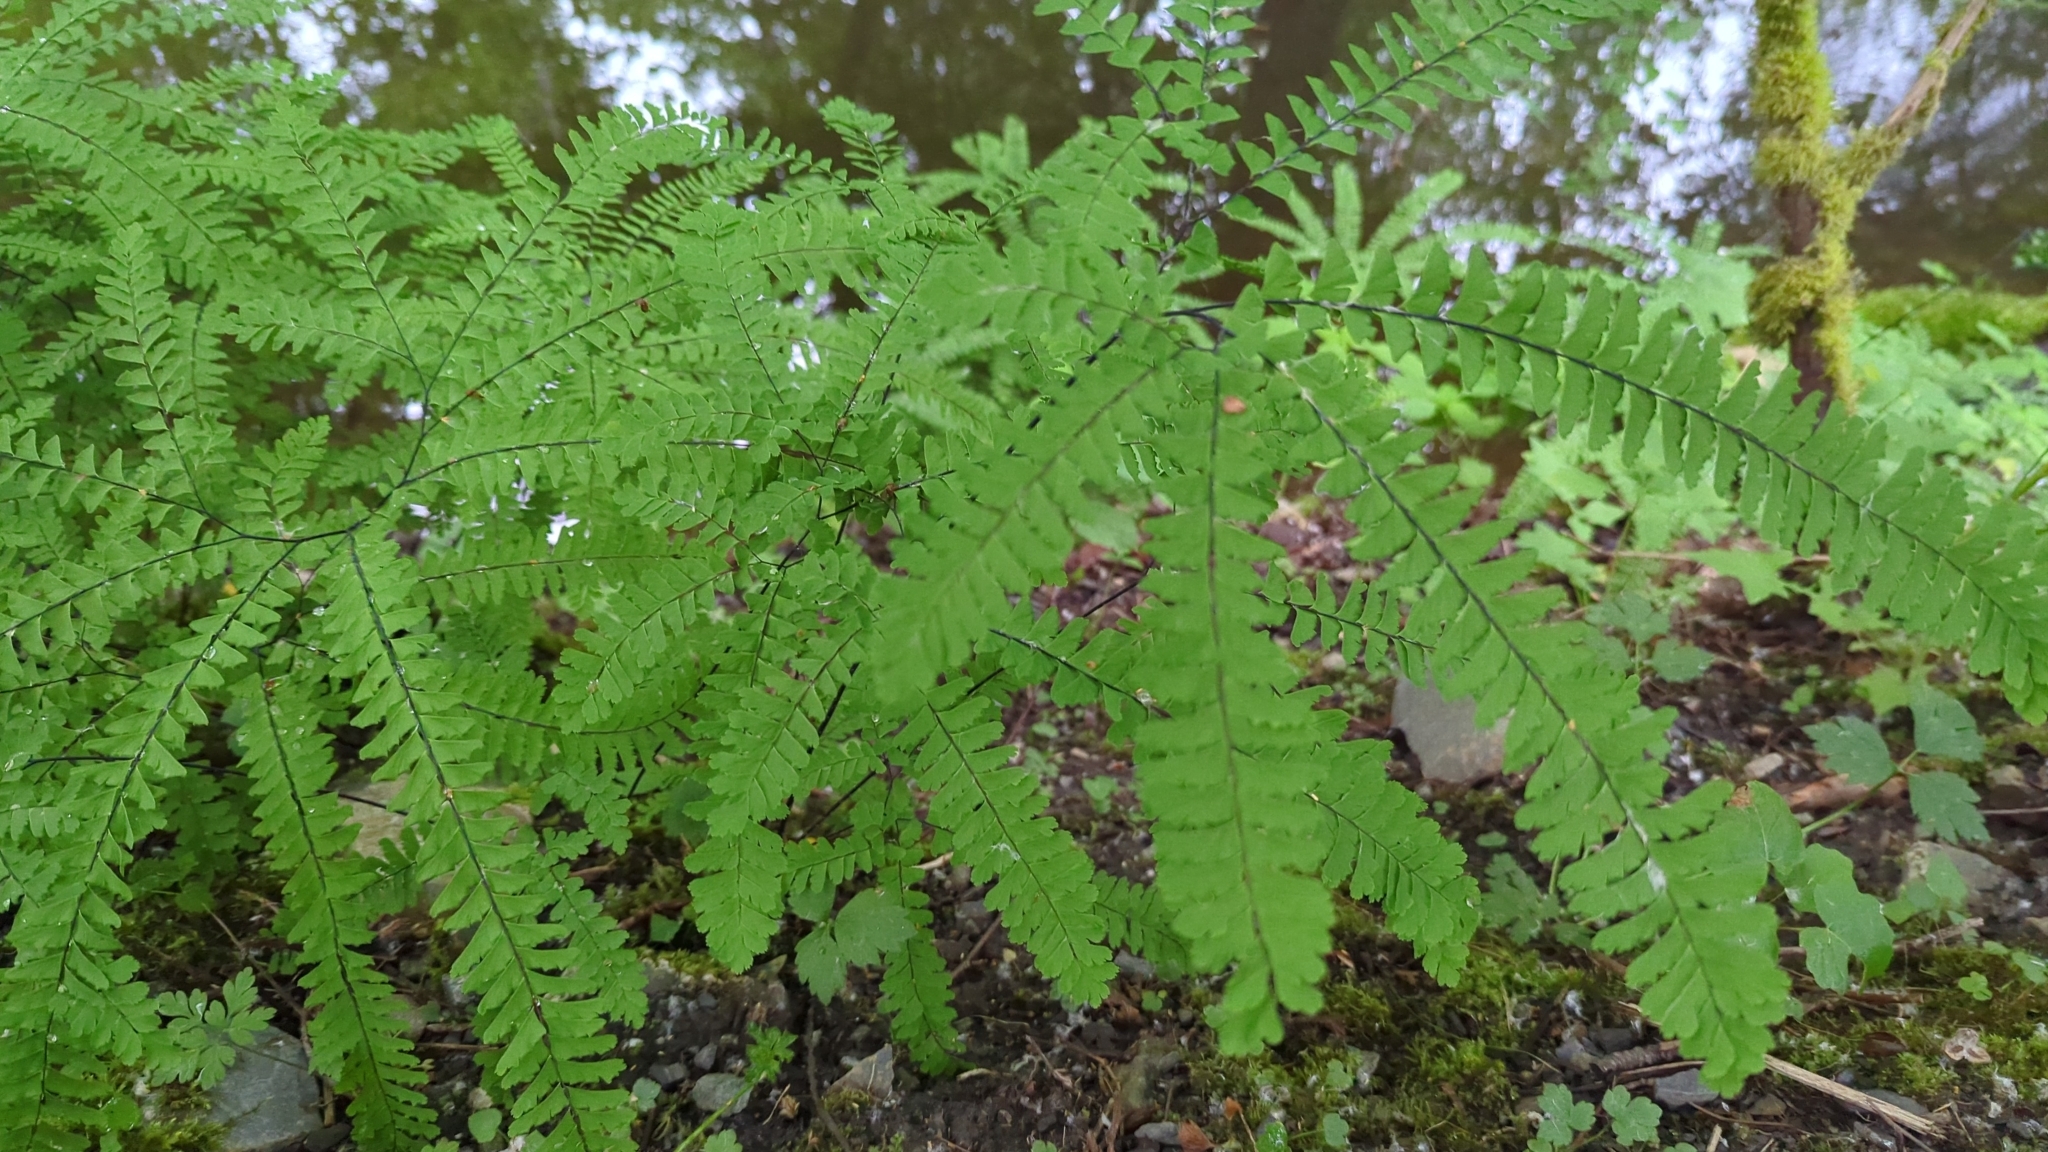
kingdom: Plantae
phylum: Tracheophyta
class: Polypodiopsida
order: Polypodiales
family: Pteridaceae
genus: Adiantum
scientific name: Adiantum aleuticum
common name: Aleutian maidenhair fern
